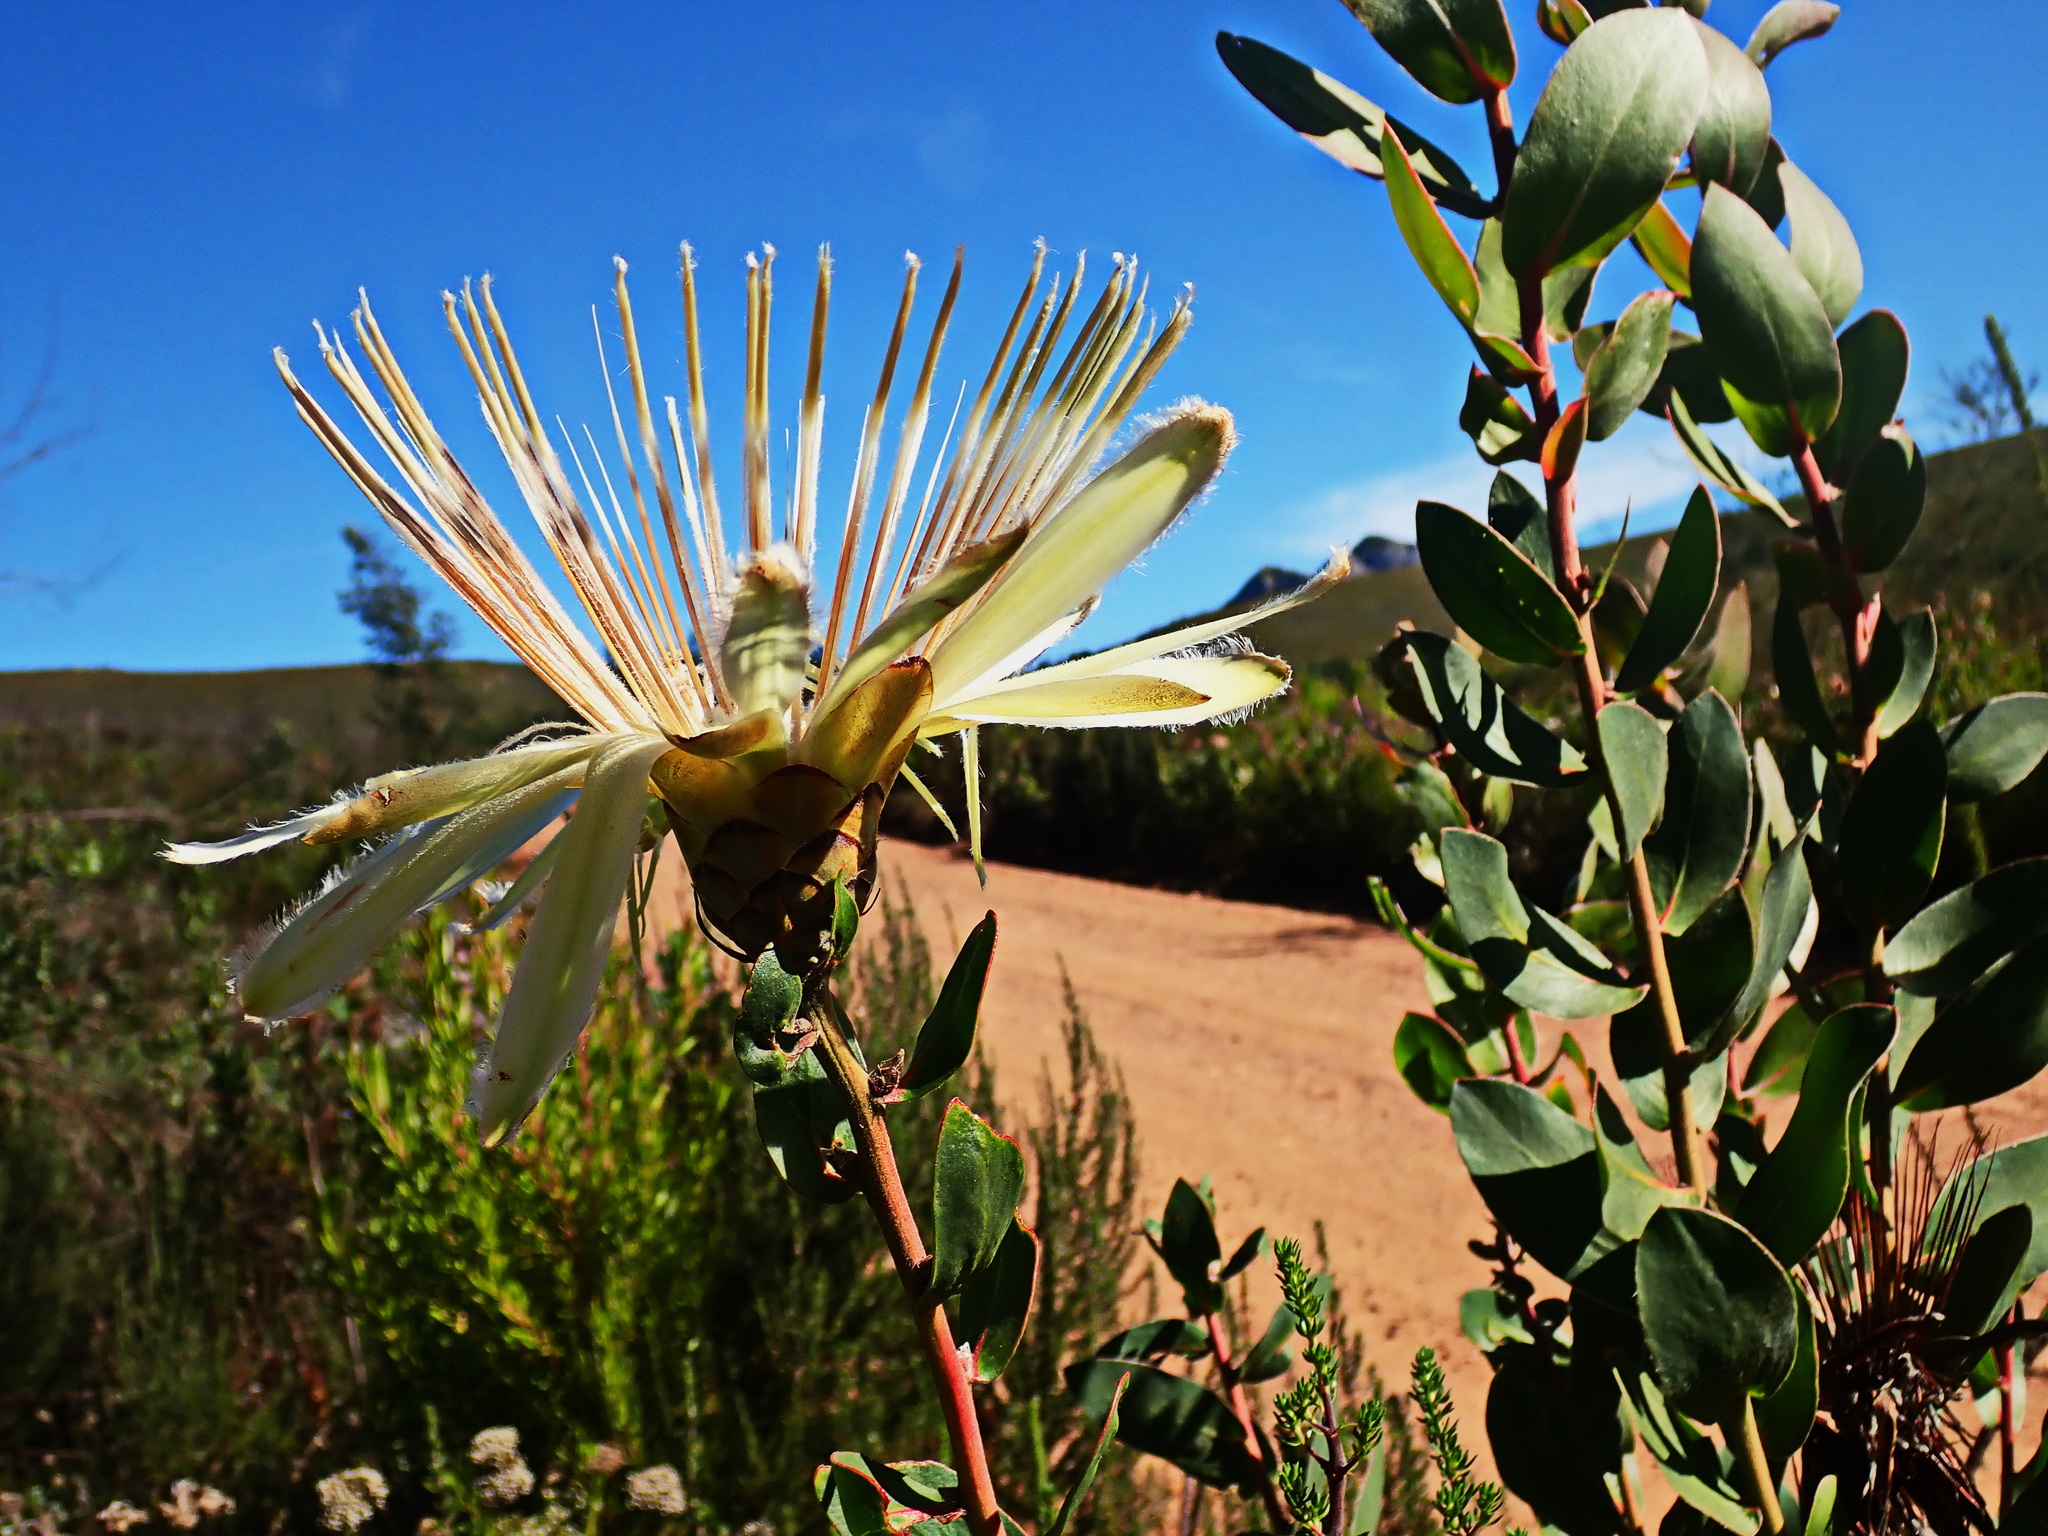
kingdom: Plantae
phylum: Tracheophyta
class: Magnoliopsida
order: Proteales
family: Proteaceae
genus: Protea
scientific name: Protea aurea
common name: Shuttlecock sugarbush
